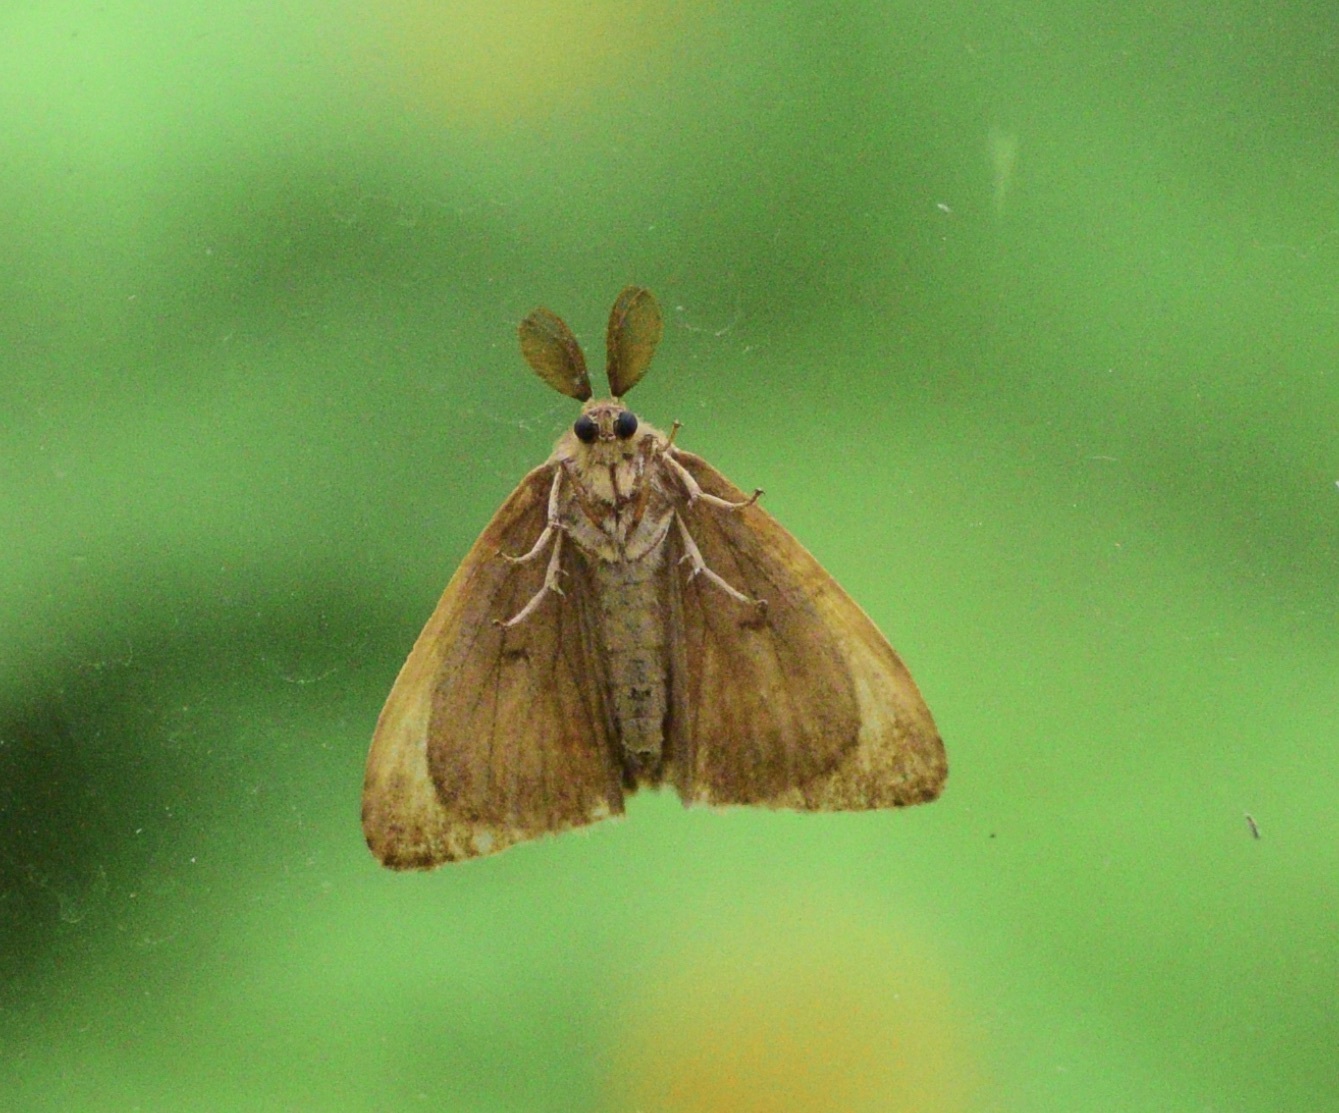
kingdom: Animalia
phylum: Arthropoda
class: Insecta
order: Lepidoptera
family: Erebidae
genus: Lymantria
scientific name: Lymantria dispar
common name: Gypsy moth
